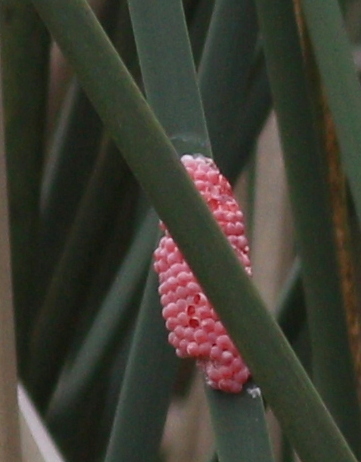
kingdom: Animalia
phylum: Mollusca
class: Gastropoda
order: Architaenioglossa
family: Ampullariidae
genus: Pomacea
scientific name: Pomacea canaliculata
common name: Channeled applesnail
